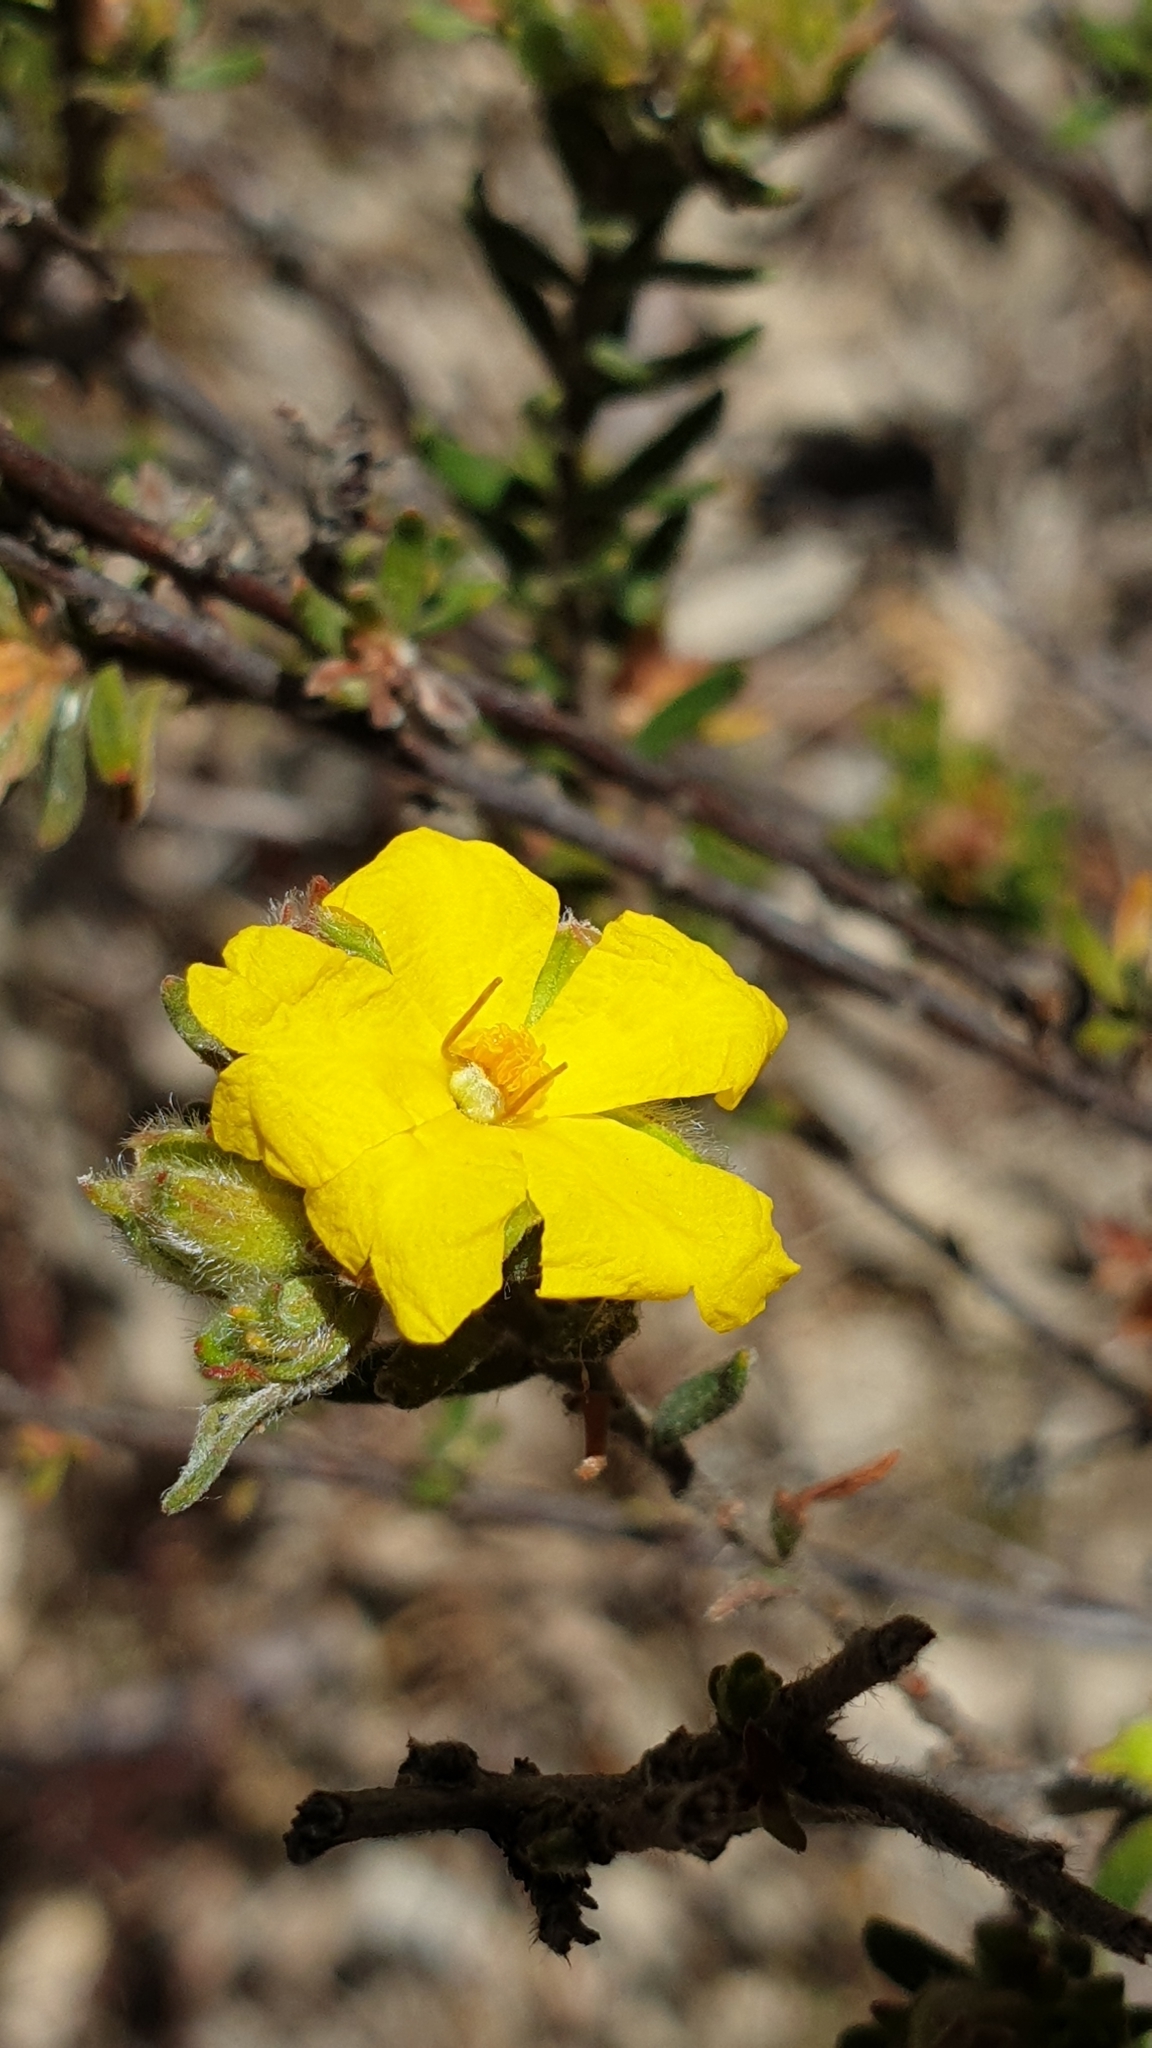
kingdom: Plantae
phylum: Tracheophyta
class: Magnoliopsida
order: Dilleniales
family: Dilleniaceae
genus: Hibbertia
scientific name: Hibbertia crinita
